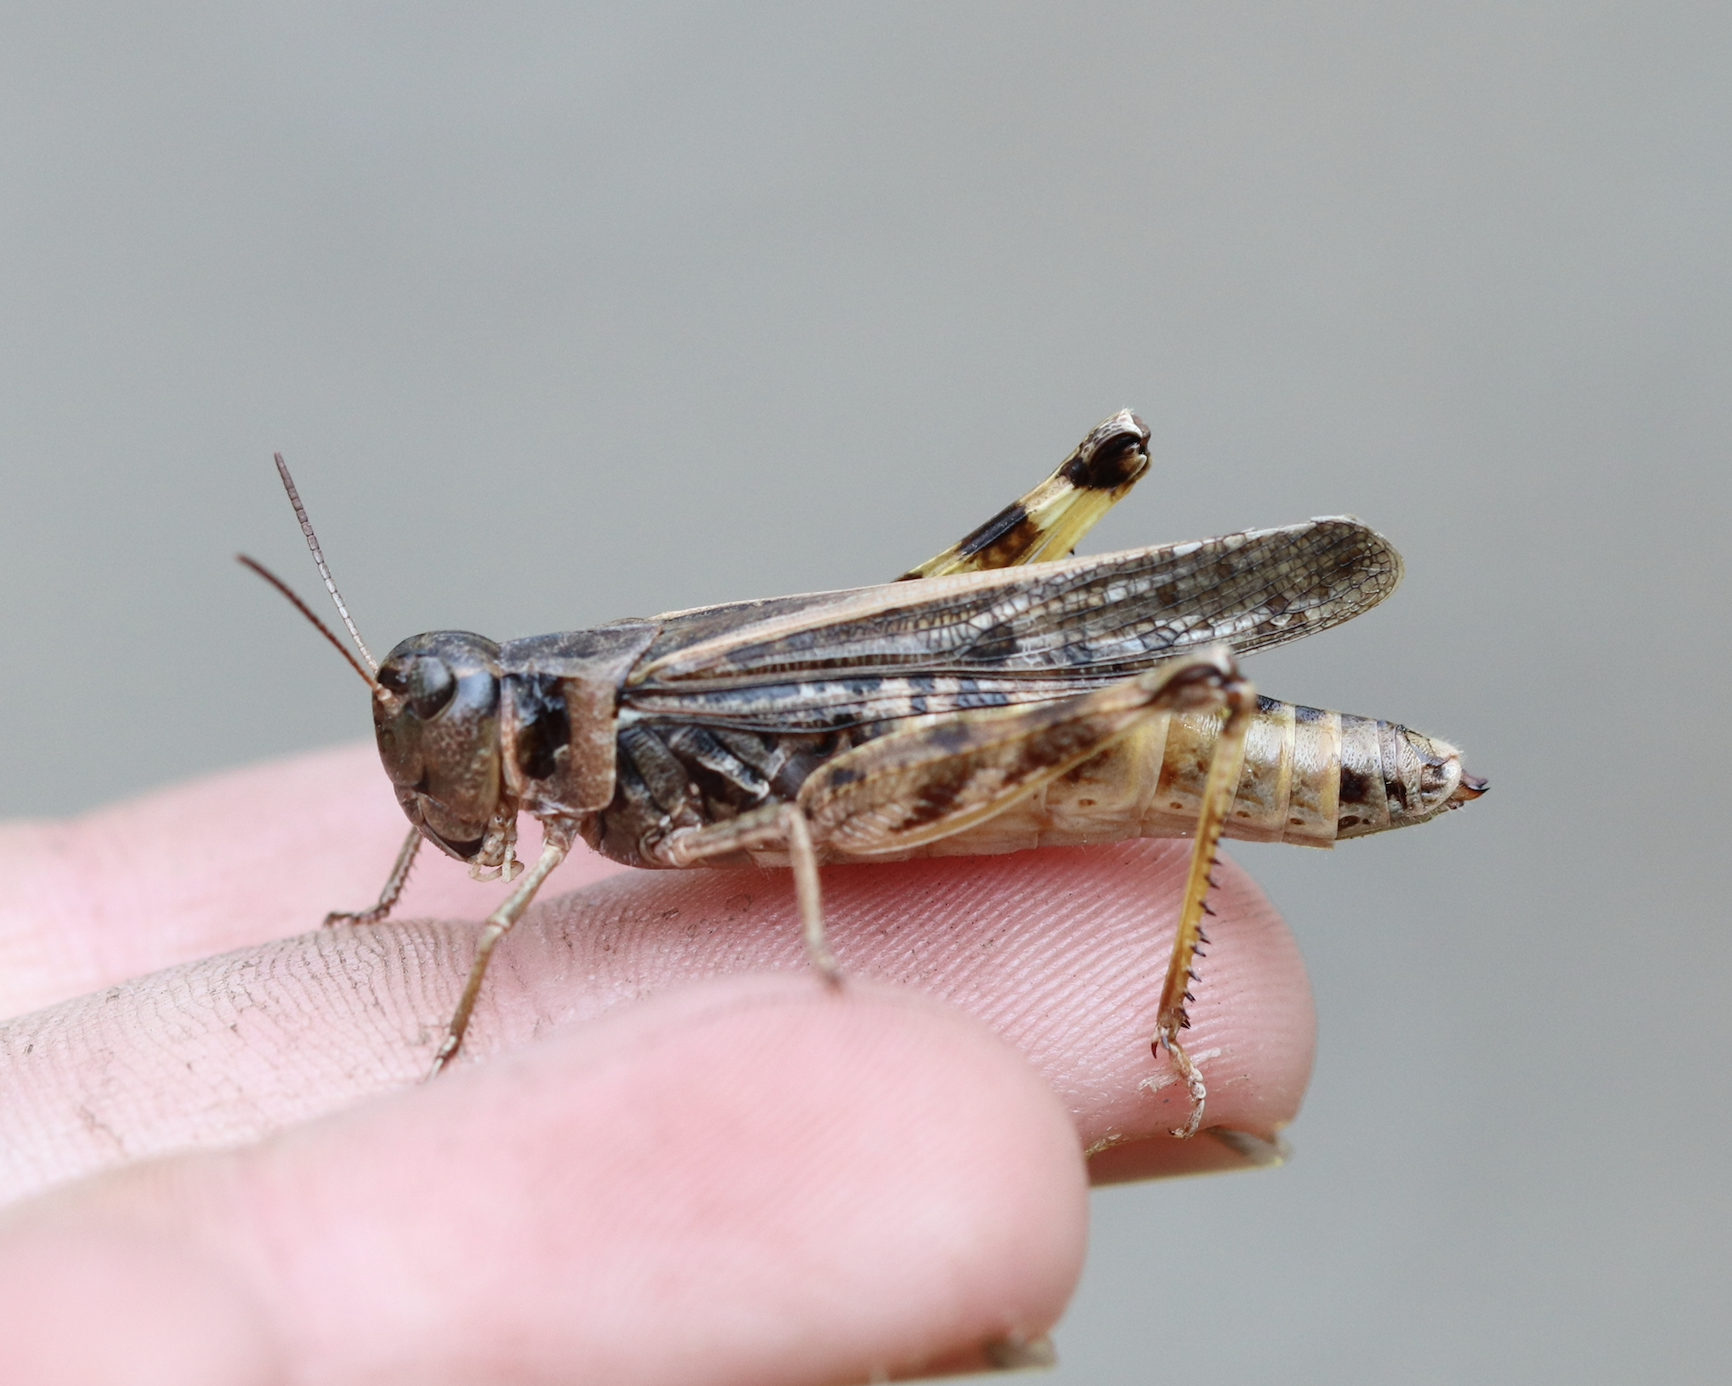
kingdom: Animalia
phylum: Arthropoda
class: Insecta
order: Orthoptera
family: Acrididae
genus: Camnula
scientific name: Camnula pellucida
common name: Clear-winged grasshopper
